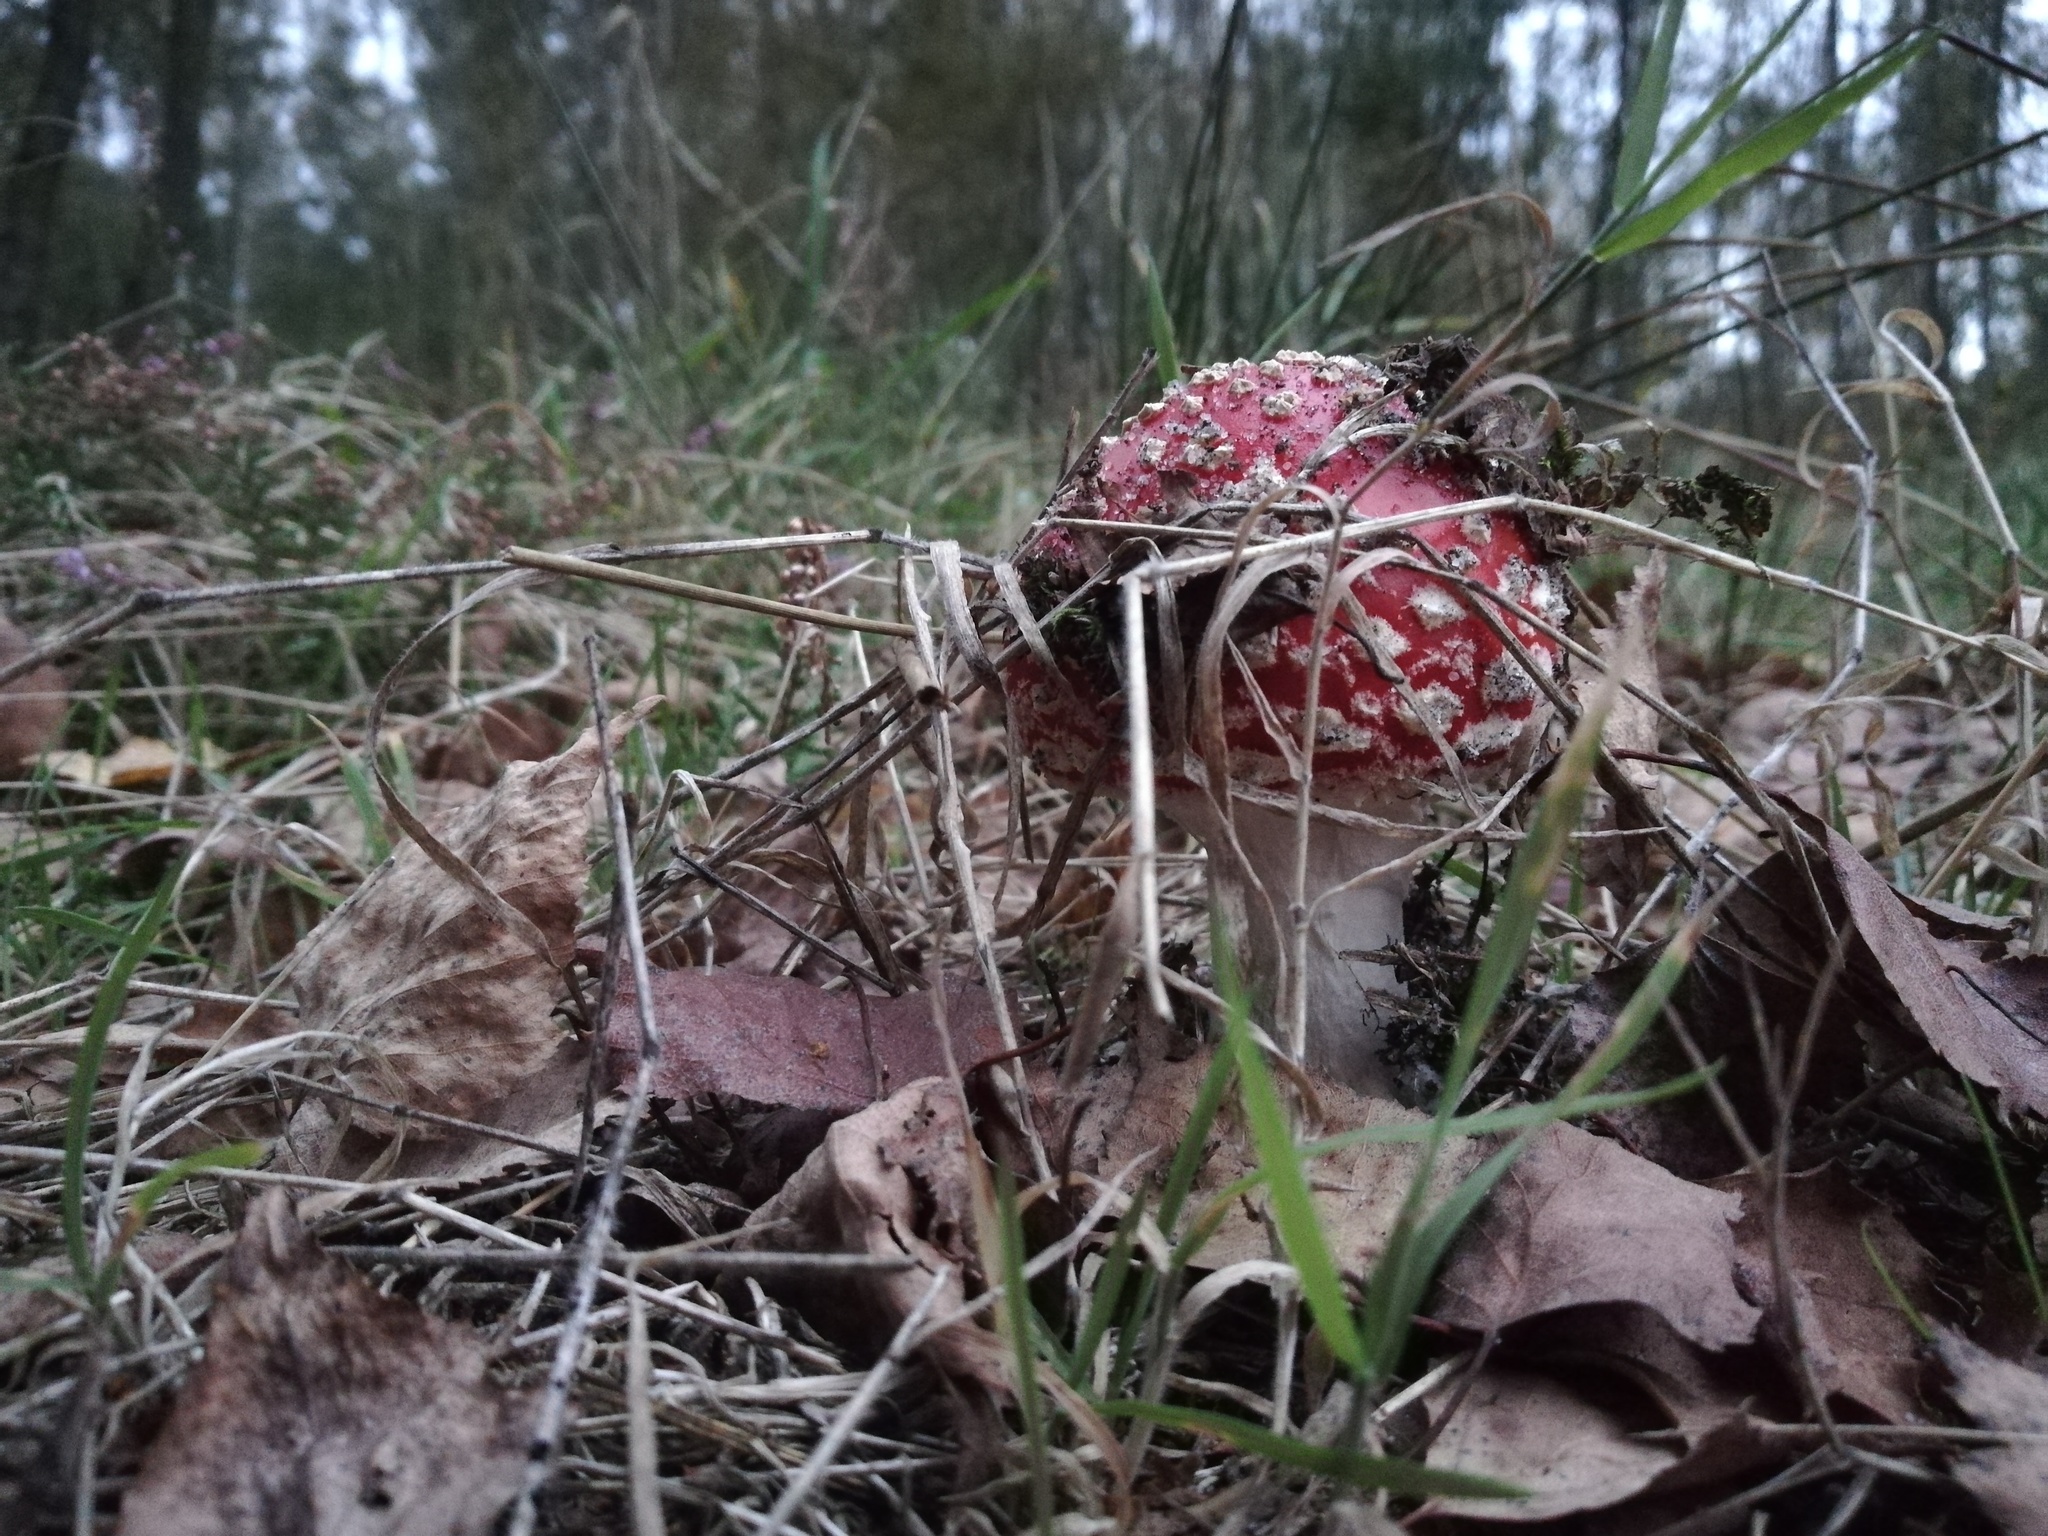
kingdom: Fungi
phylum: Basidiomycota
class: Agaricomycetes
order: Agaricales
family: Amanitaceae
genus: Amanita
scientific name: Amanita muscaria
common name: Fly agaric
